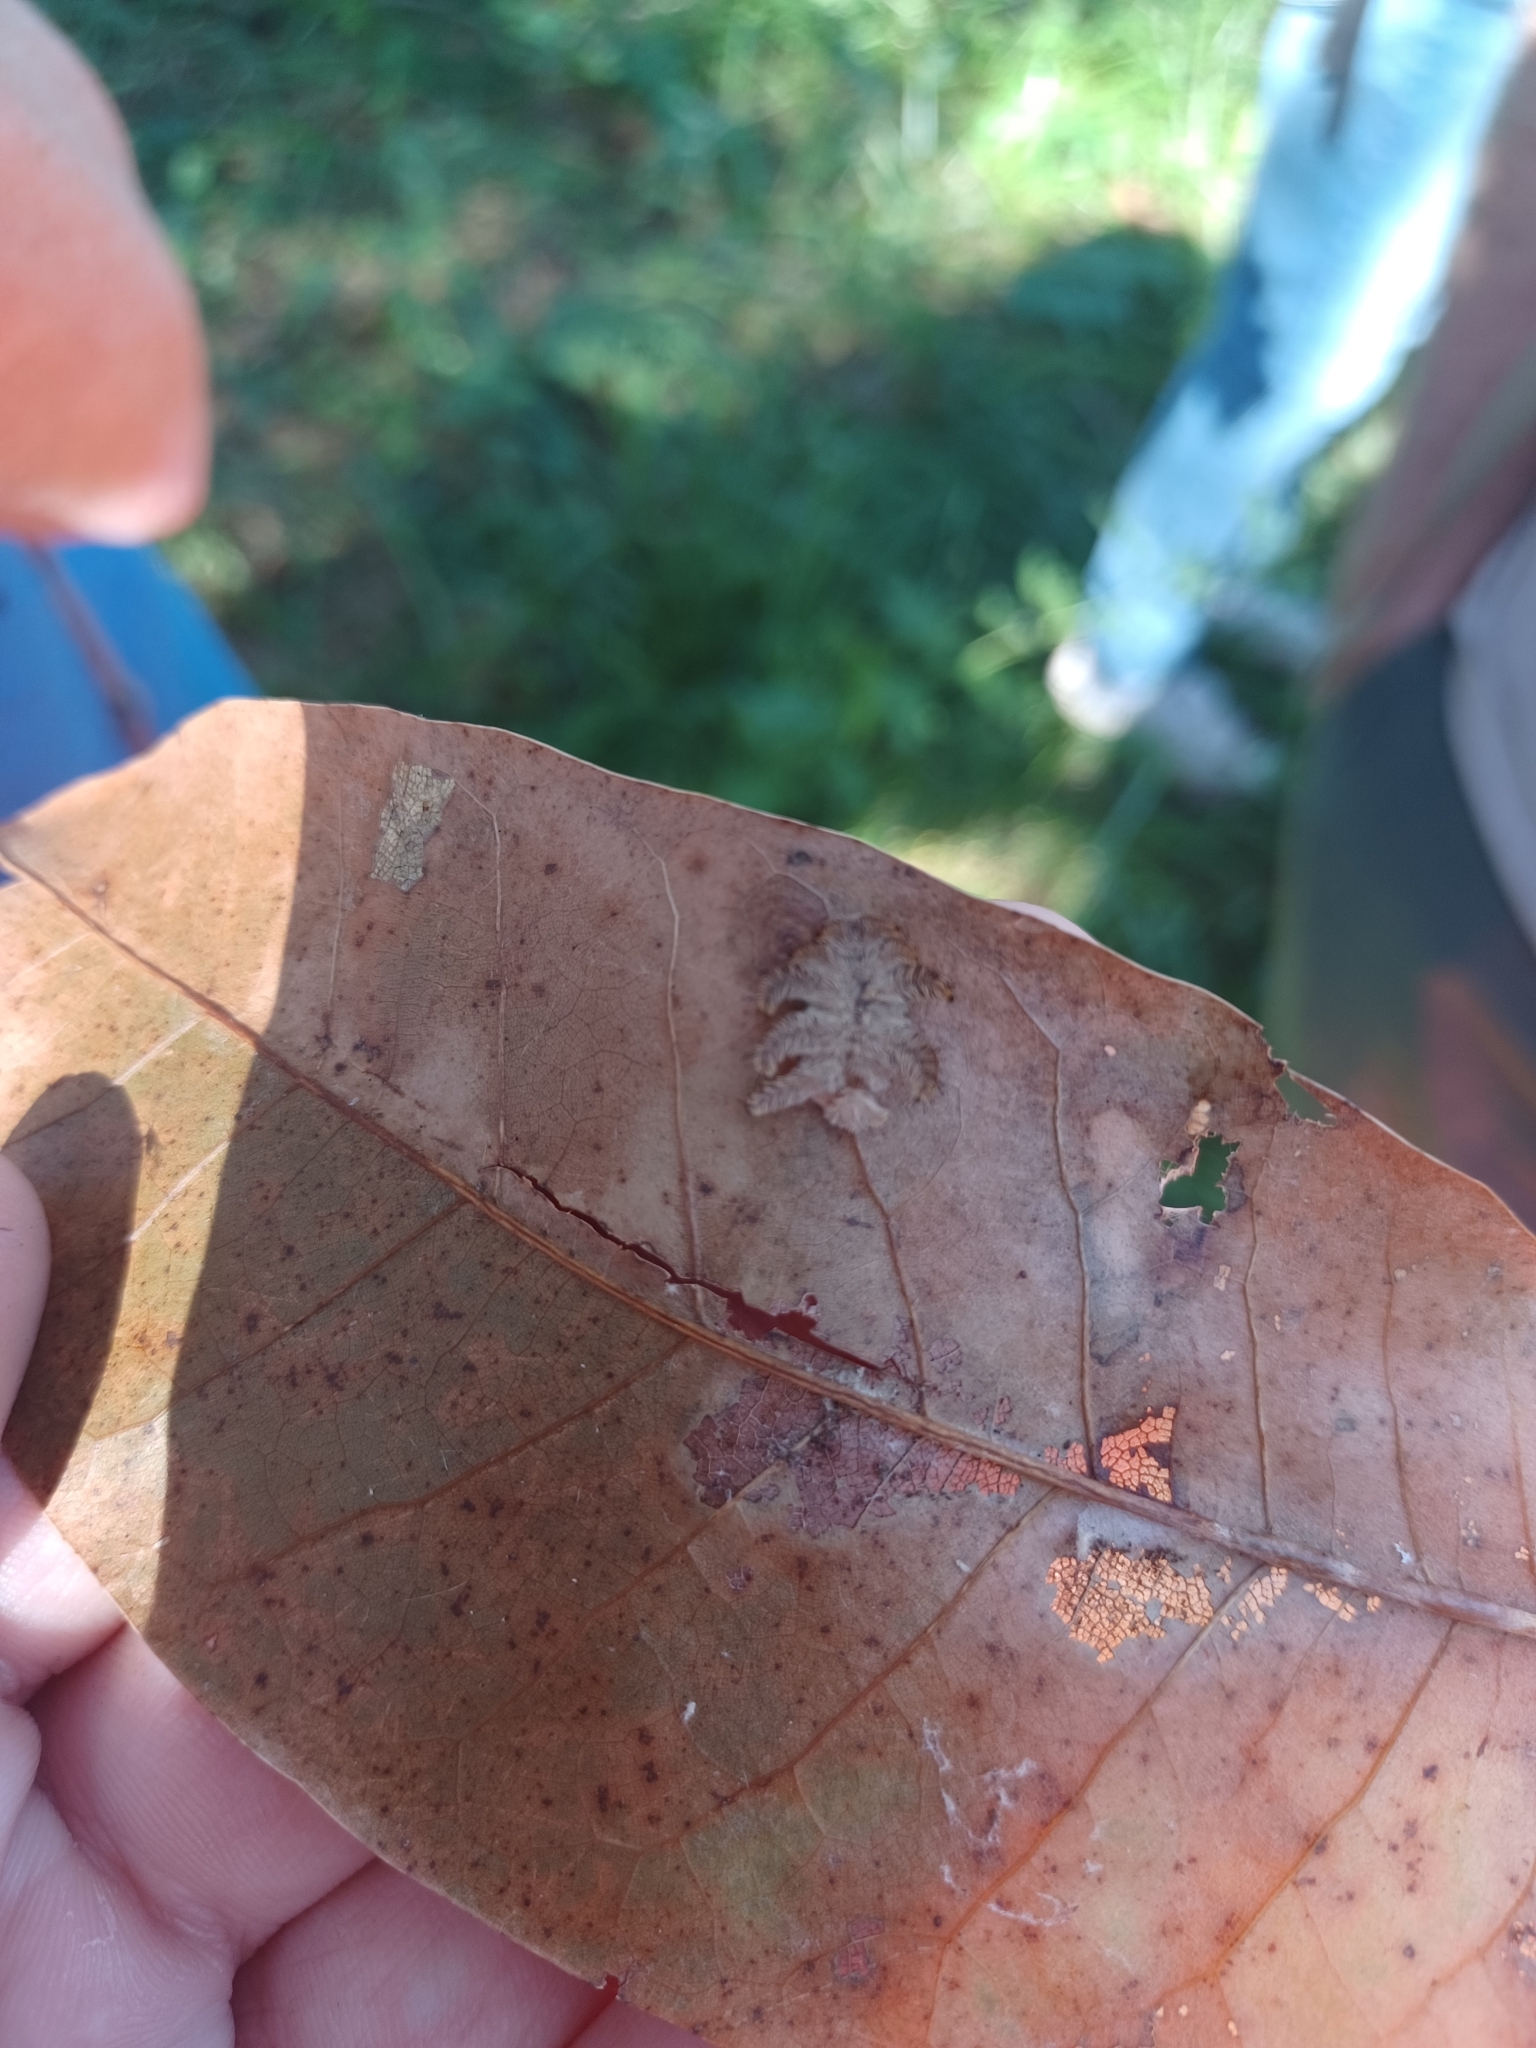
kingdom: Animalia
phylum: Arthropoda
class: Insecta
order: Lepidoptera
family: Limacodidae
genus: Phobetron
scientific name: Phobetron pithecium
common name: Hag moth
